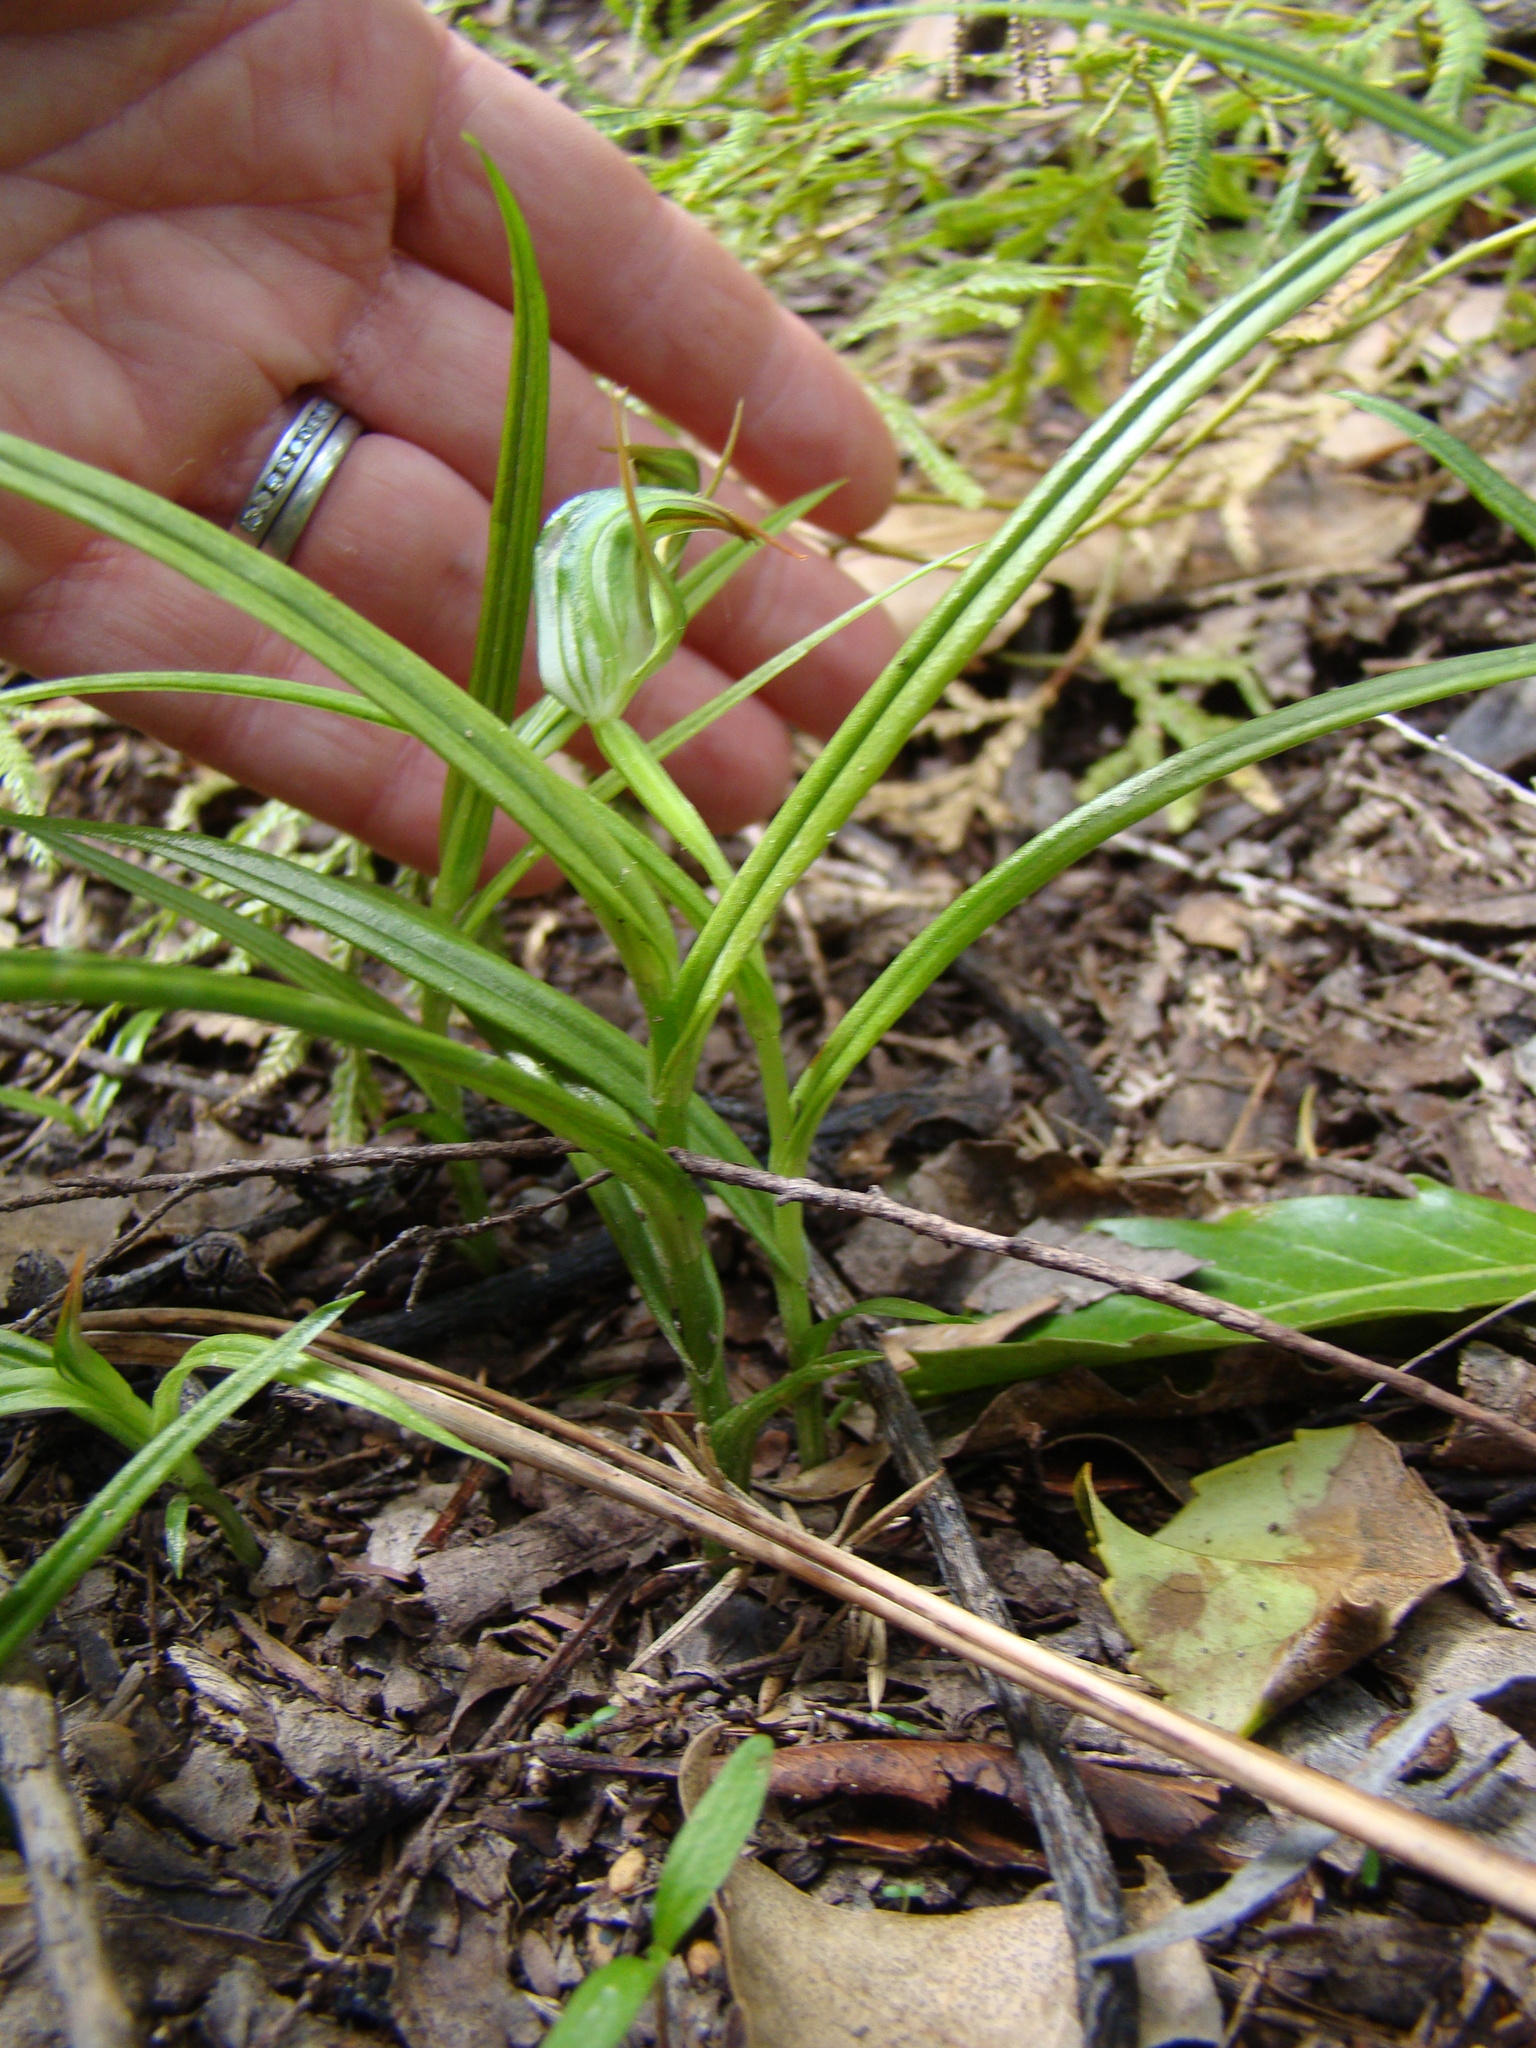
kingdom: Plantae
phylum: Tracheophyta
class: Liliopsida
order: Asparagales
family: Orchidaceae
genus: Pterostylis
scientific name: Pterostylis graminea
